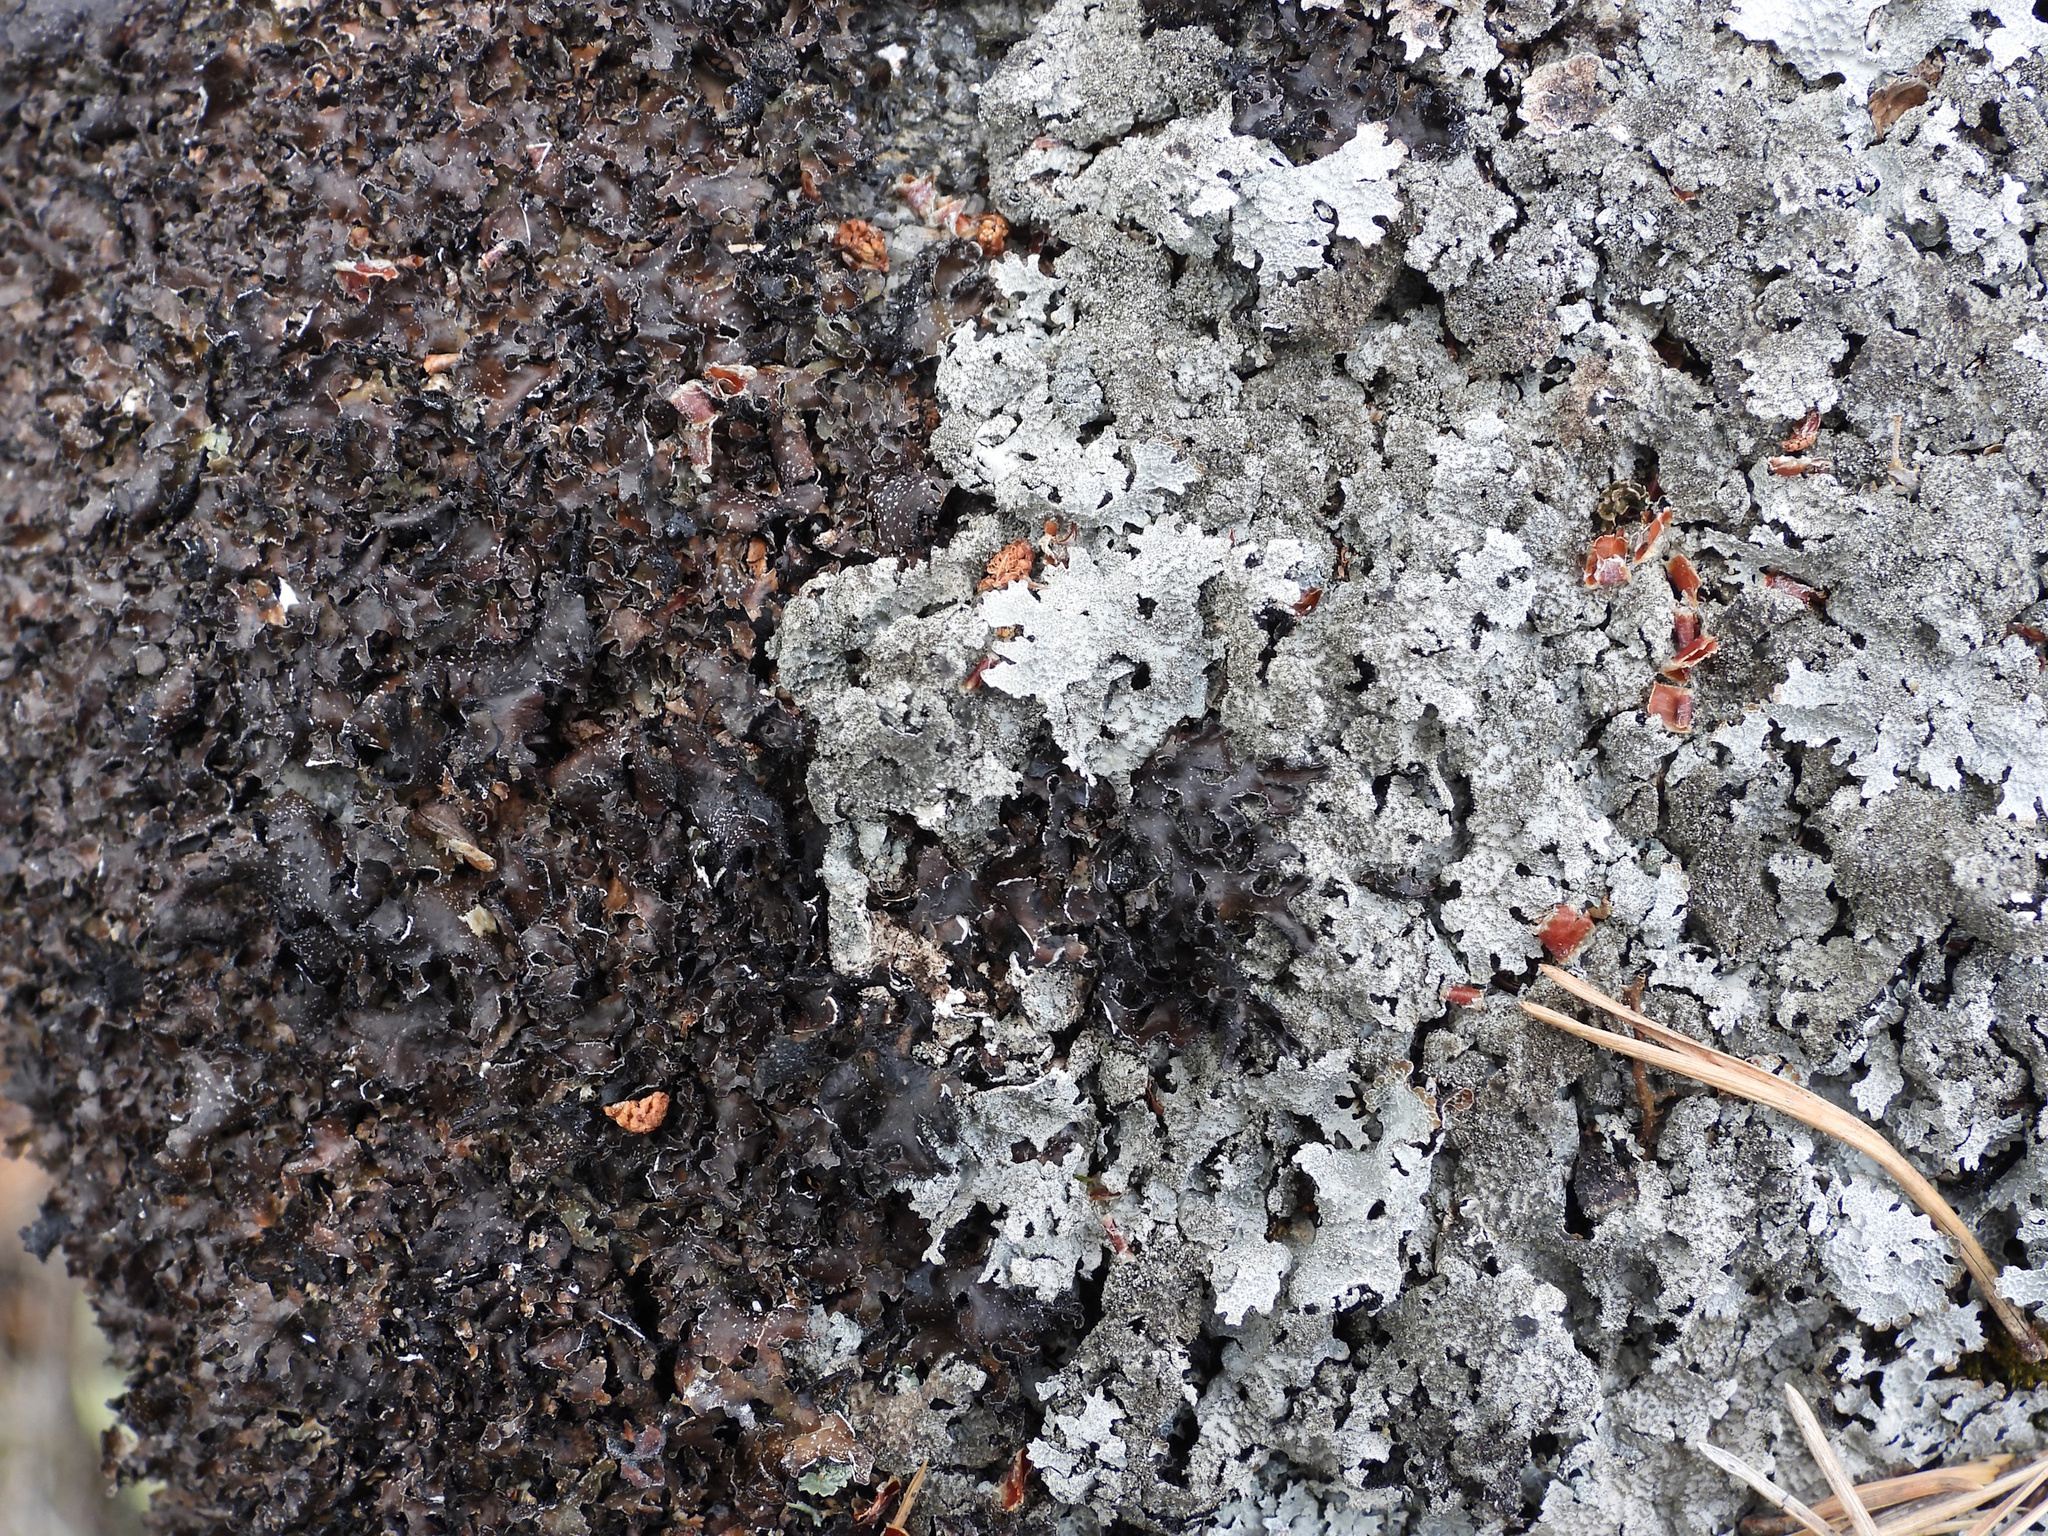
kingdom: Fungi
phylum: Ascomycota
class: Lecanoromycetes
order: Lecanorales
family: Parmeliaceae
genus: Parmelia
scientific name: Parmelia saxatilis
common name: Salted shield lichen
